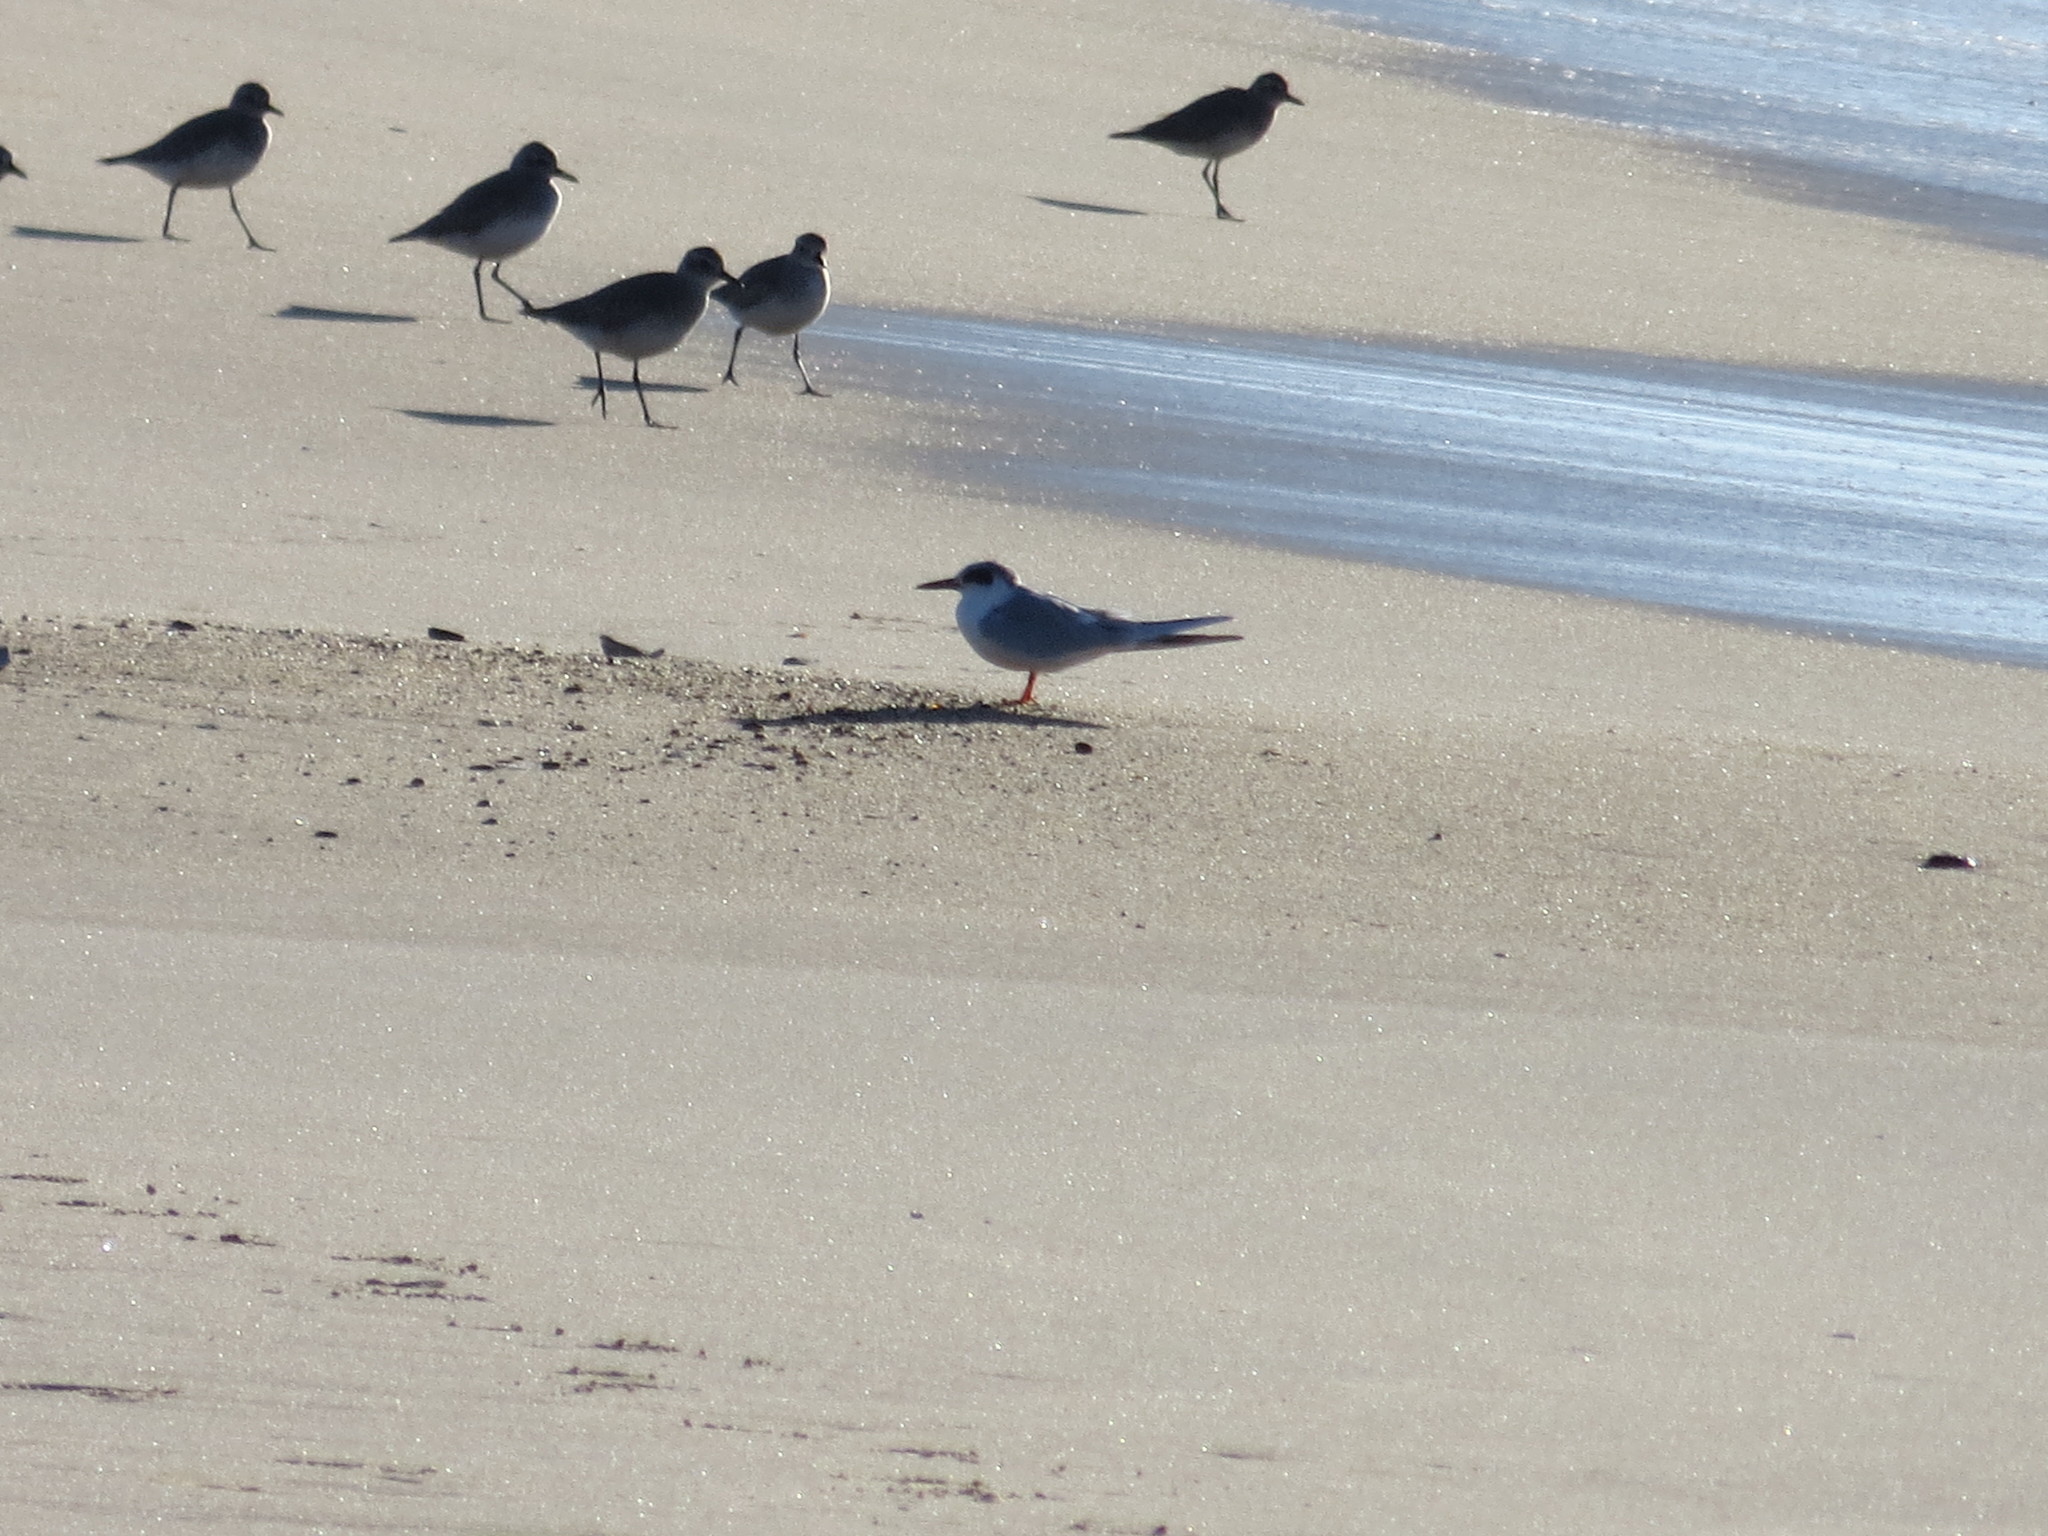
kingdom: Animalia
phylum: Chordata
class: Aves
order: Charadriiformes
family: Laridae
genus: Sterna
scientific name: Sterna forsteri
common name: Forster's tern
